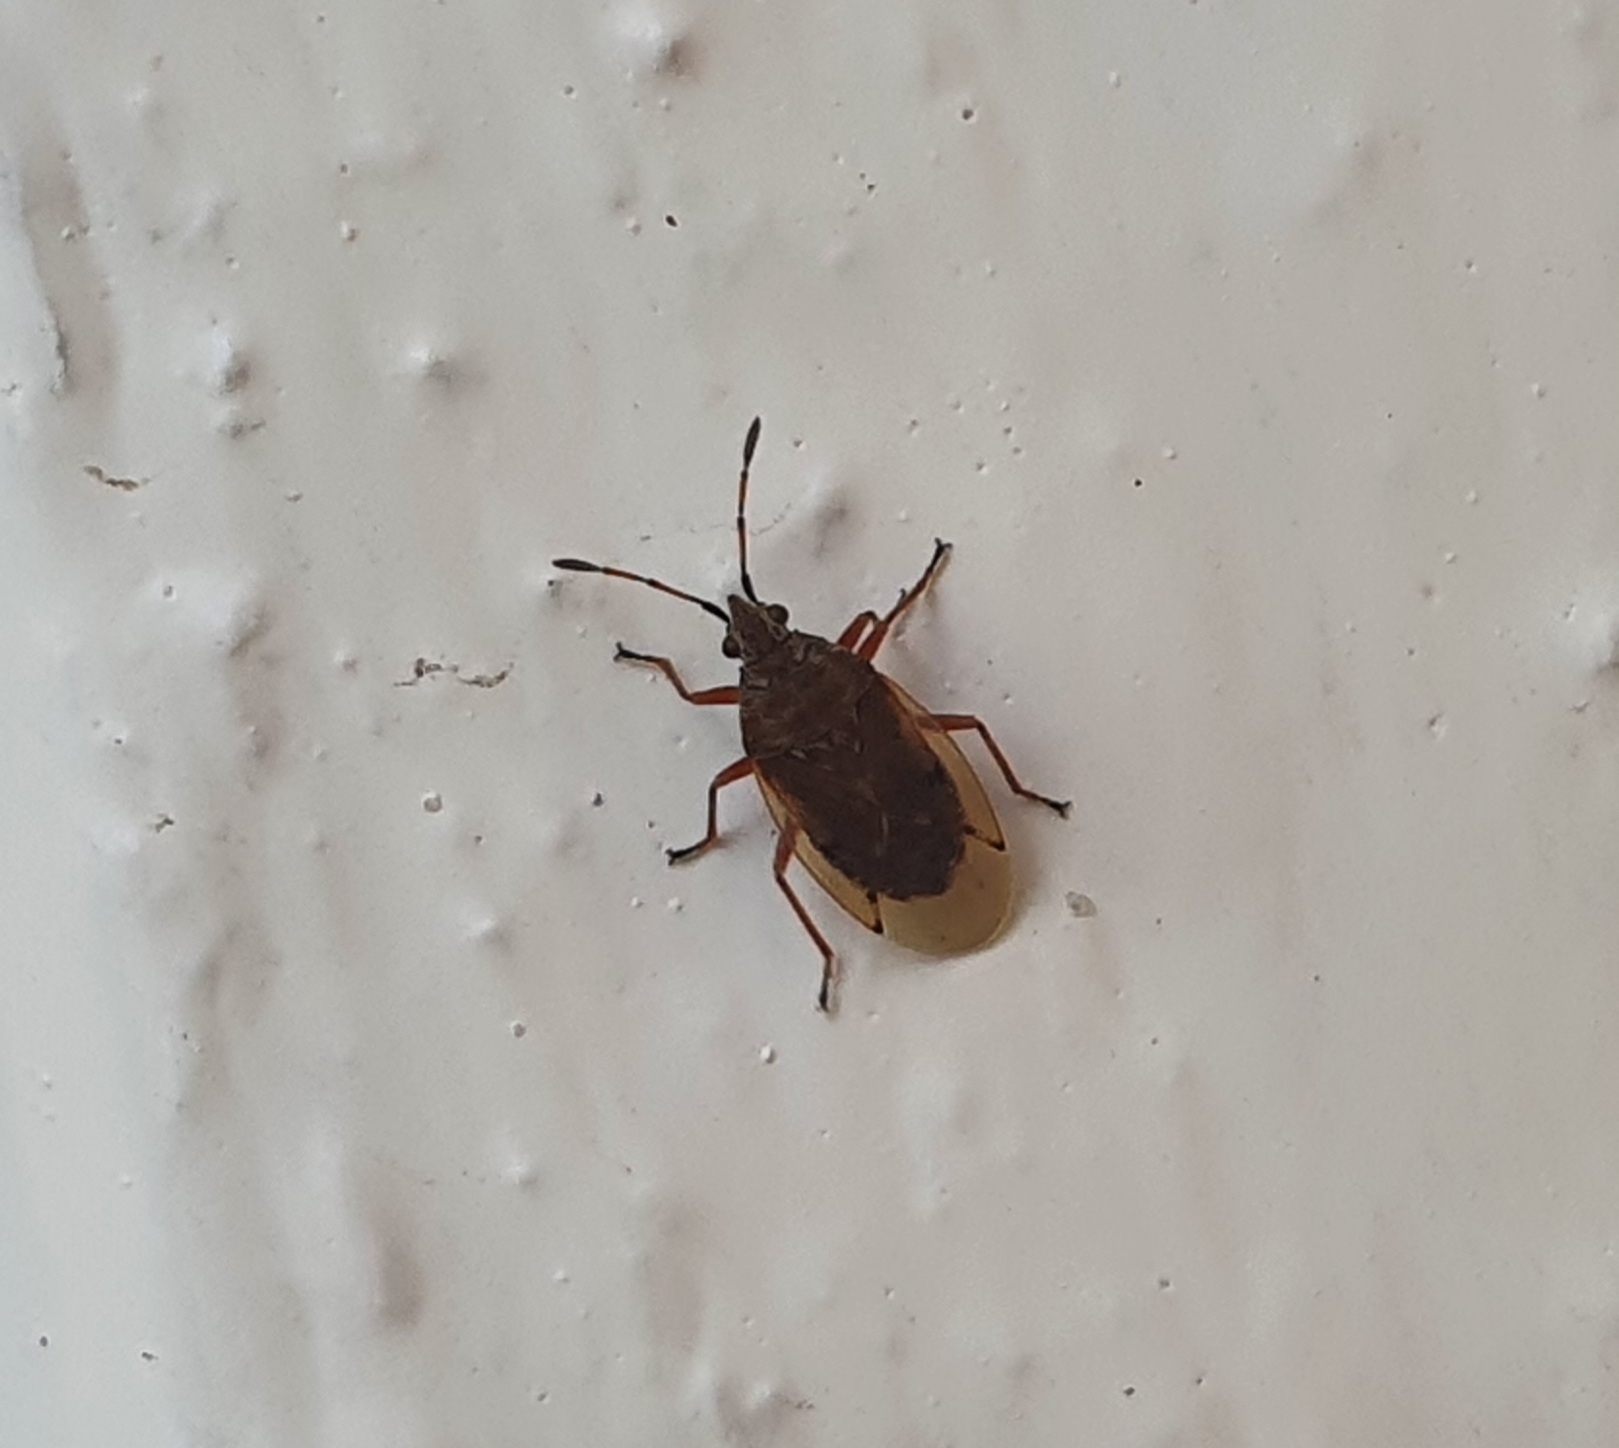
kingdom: Animalia
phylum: Arthropoda
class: Insecta
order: Hemiptera
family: Lygaeidae
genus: Kleidocerys
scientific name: Kleidocerys resedae
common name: Birch catkin bug
